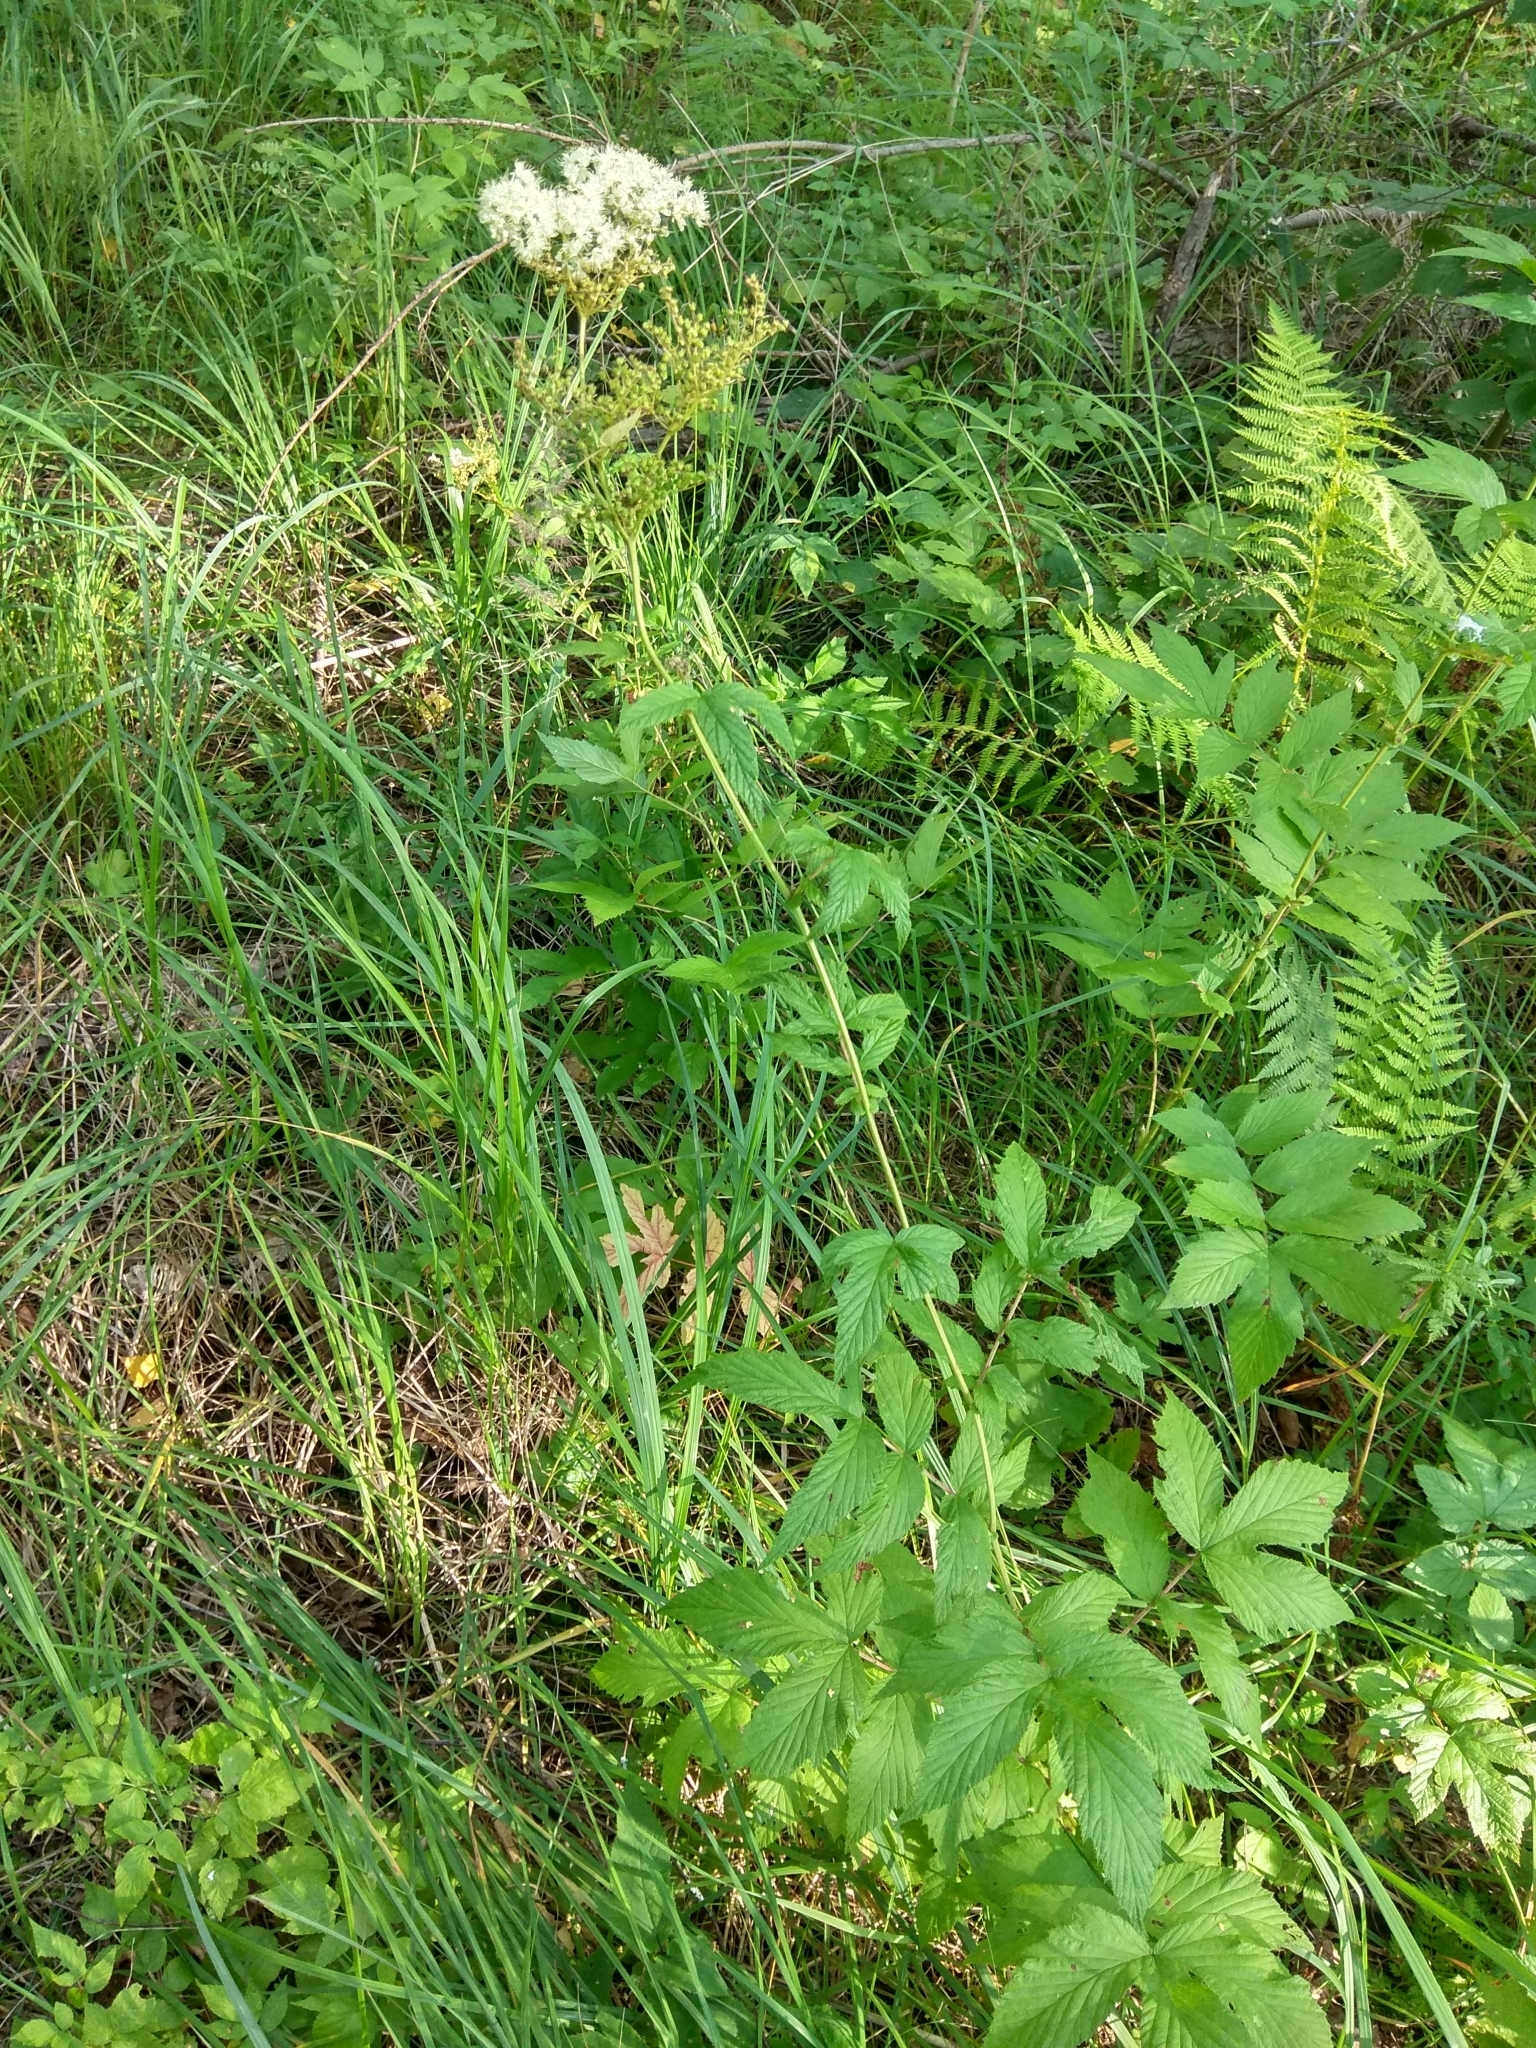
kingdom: Plantae
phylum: Tracheophyta
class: Magnoliopsida
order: Rosales
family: Rosaceae
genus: Filipendula
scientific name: Filipendula ulmaria
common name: Meadowsweet
